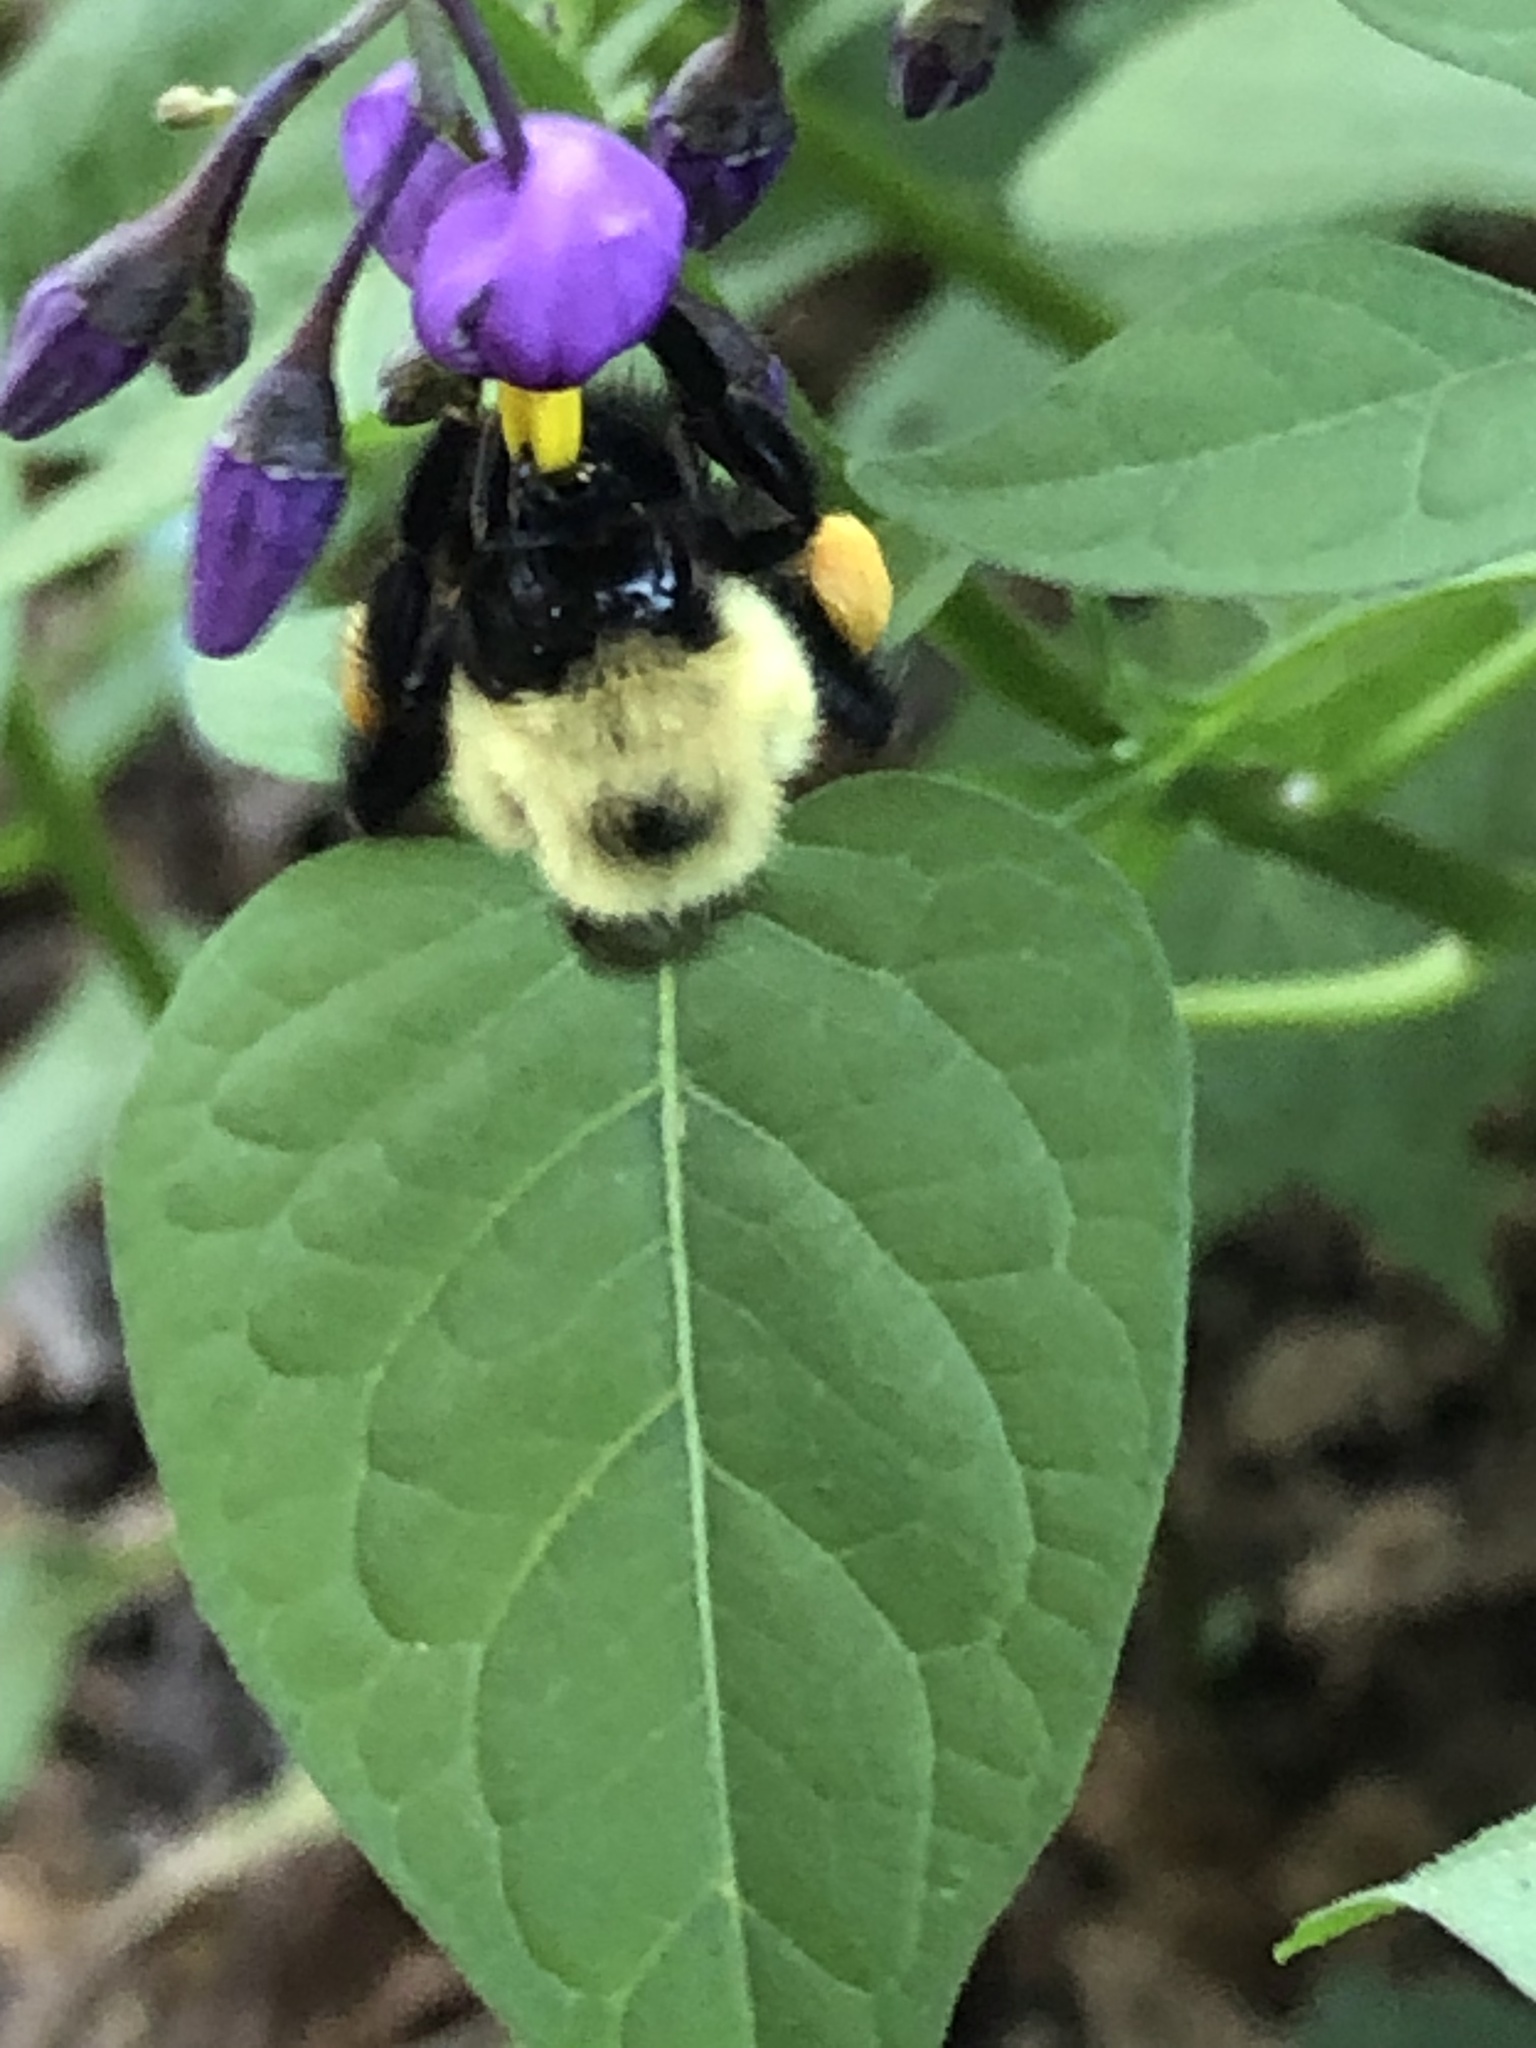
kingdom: Animalia
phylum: Arthropoda
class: Insecta
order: Hymenoptera
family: Apidae
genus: Bombus
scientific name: Bombus
